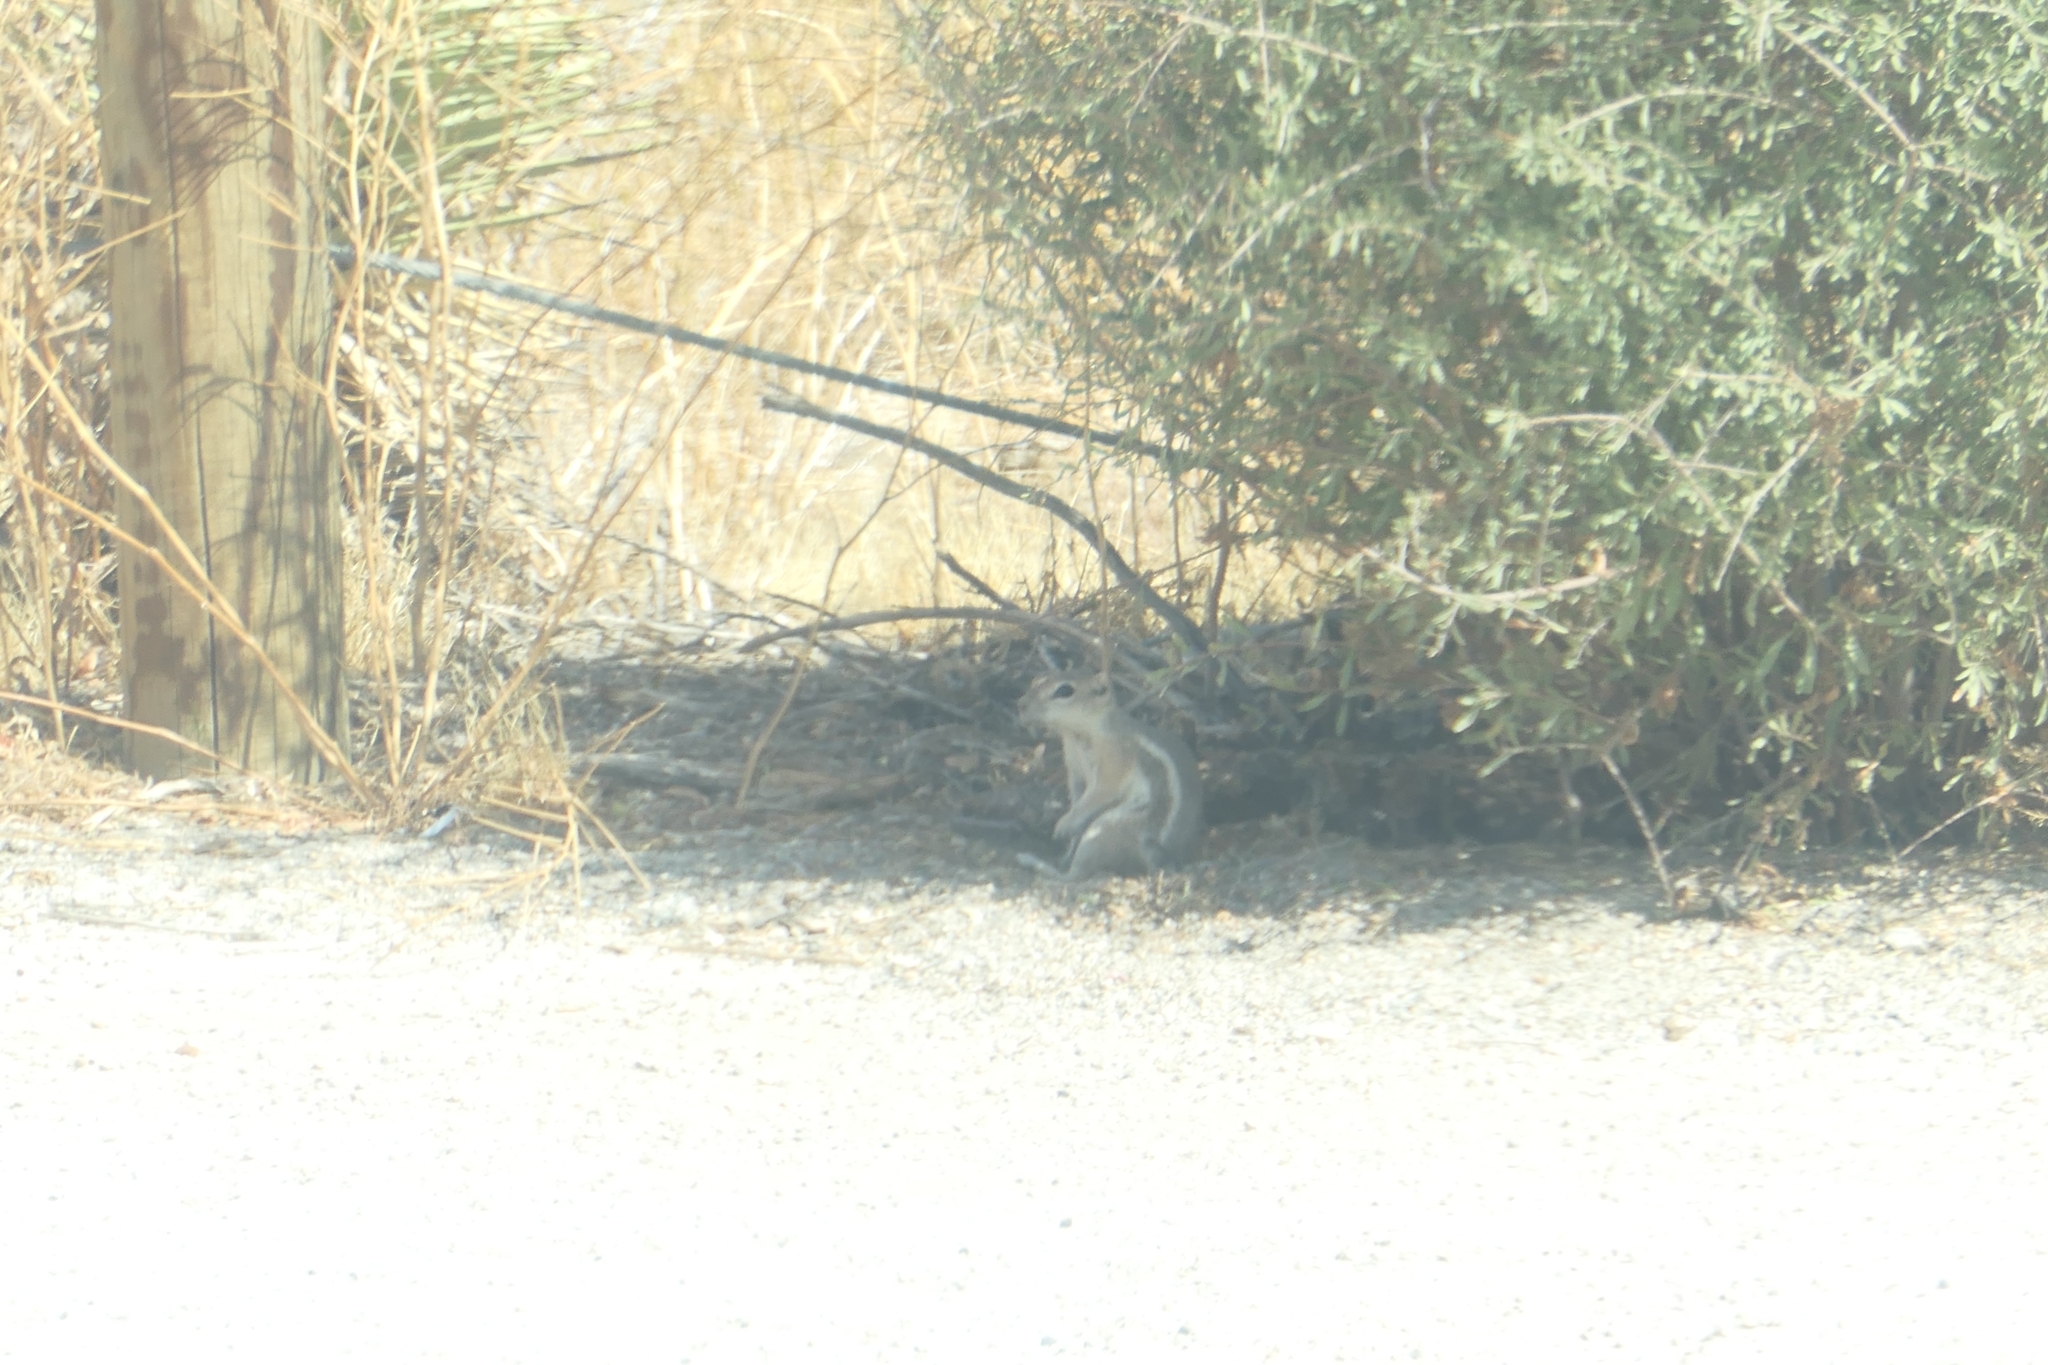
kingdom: Animalia
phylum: Chordata
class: Mammalia
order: Rodentia
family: Sciuridae
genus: Ammospermophilus
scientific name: Ammospermophilus leucurus
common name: White-tailed antelope squirrel
